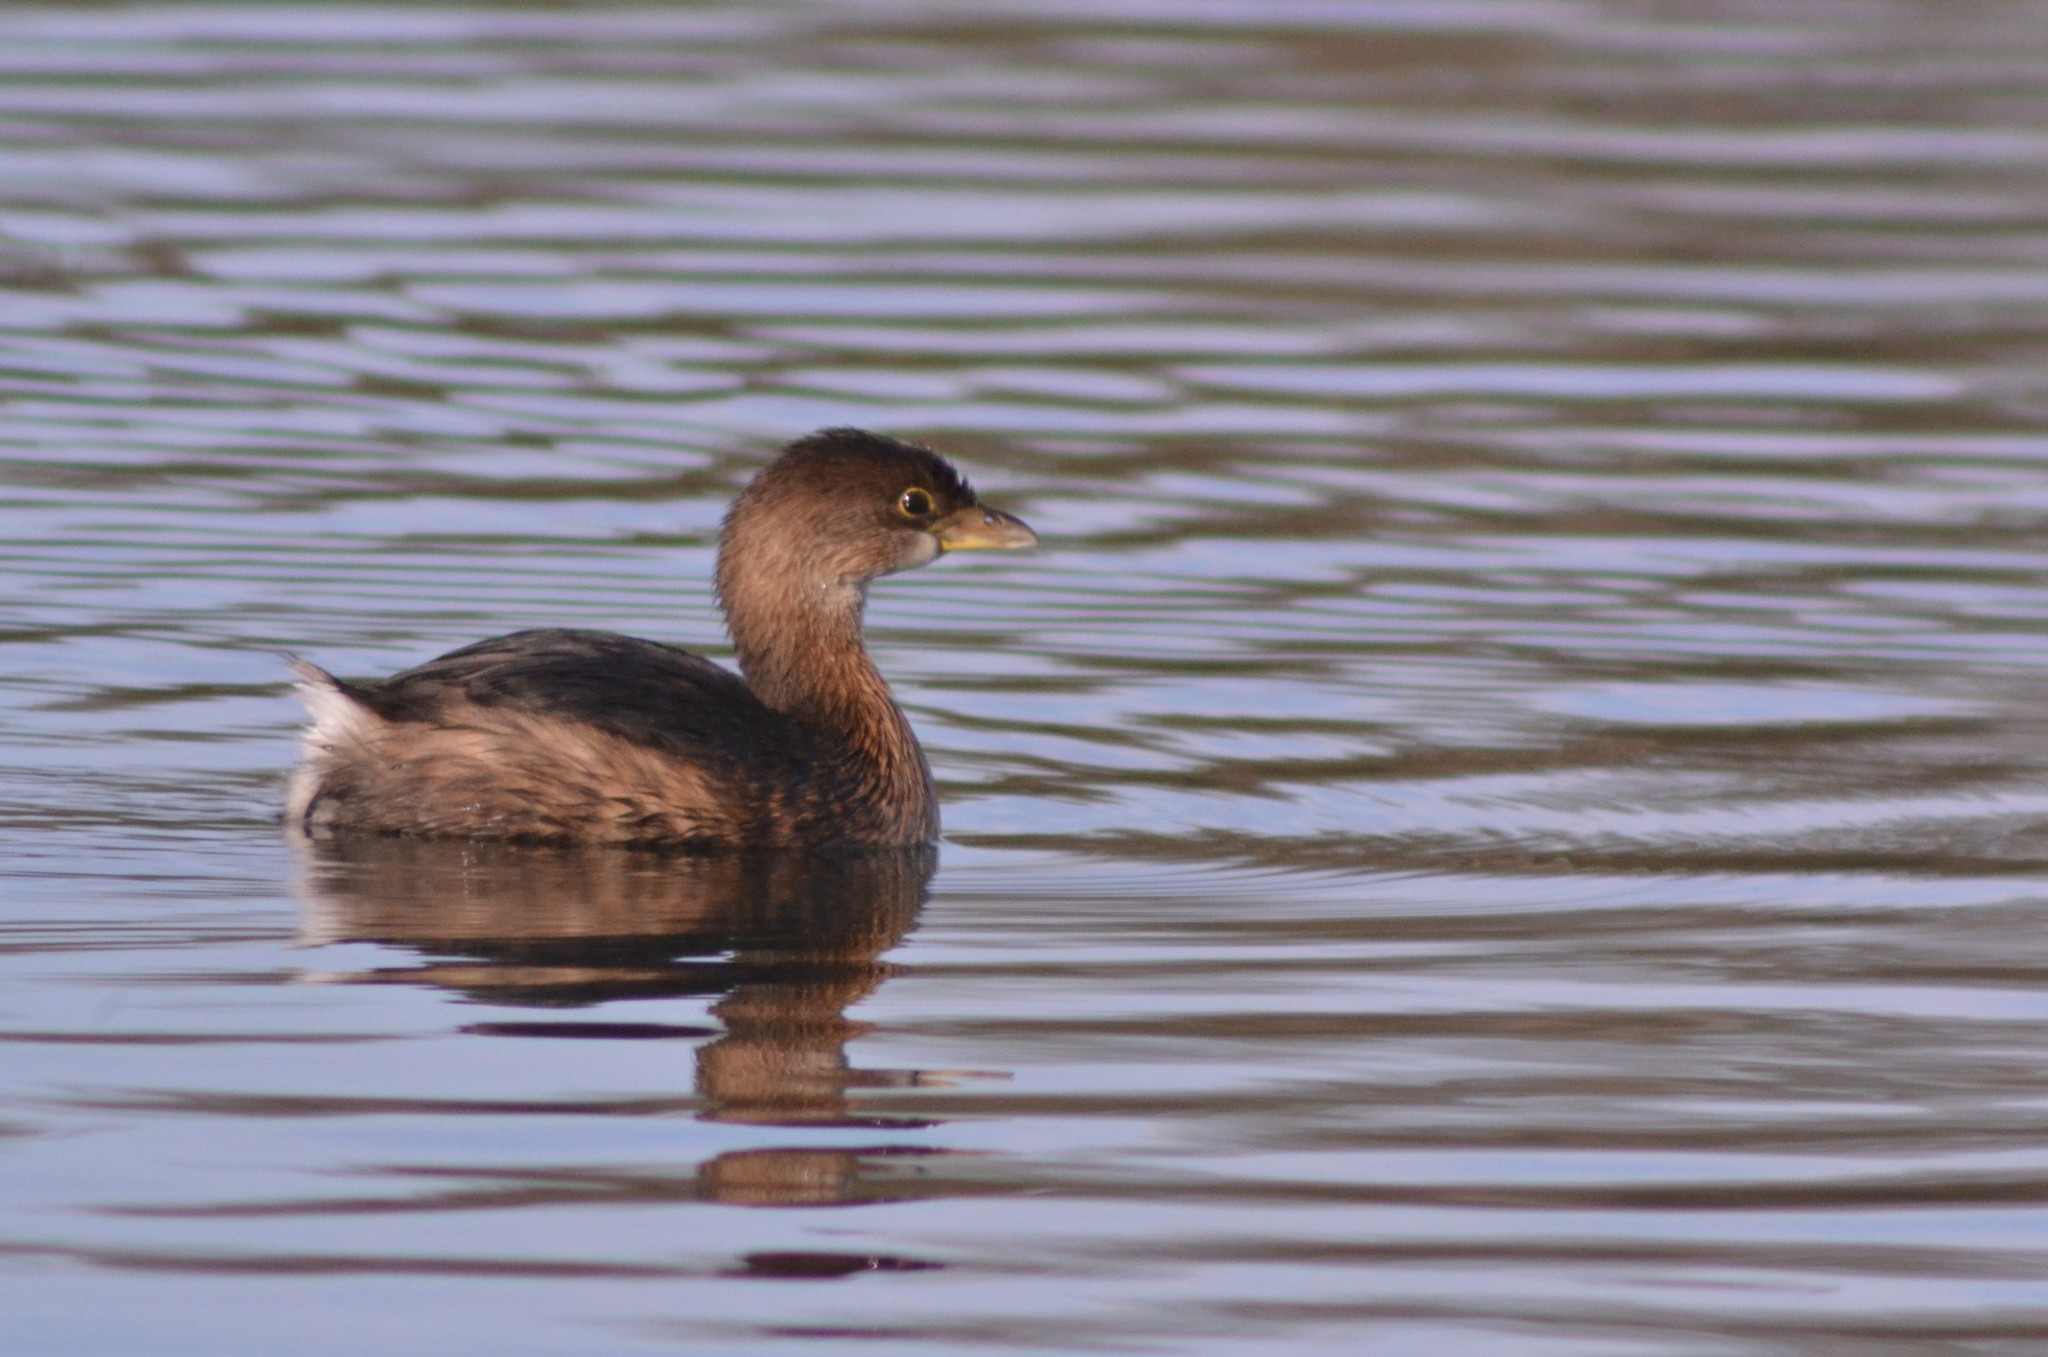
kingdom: Animalia
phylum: Chordata
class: Aves
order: Podicipediformes
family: Podicipedidae
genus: Podilymbus
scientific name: Podilymbus podiceps
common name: Pied-billed grebe
